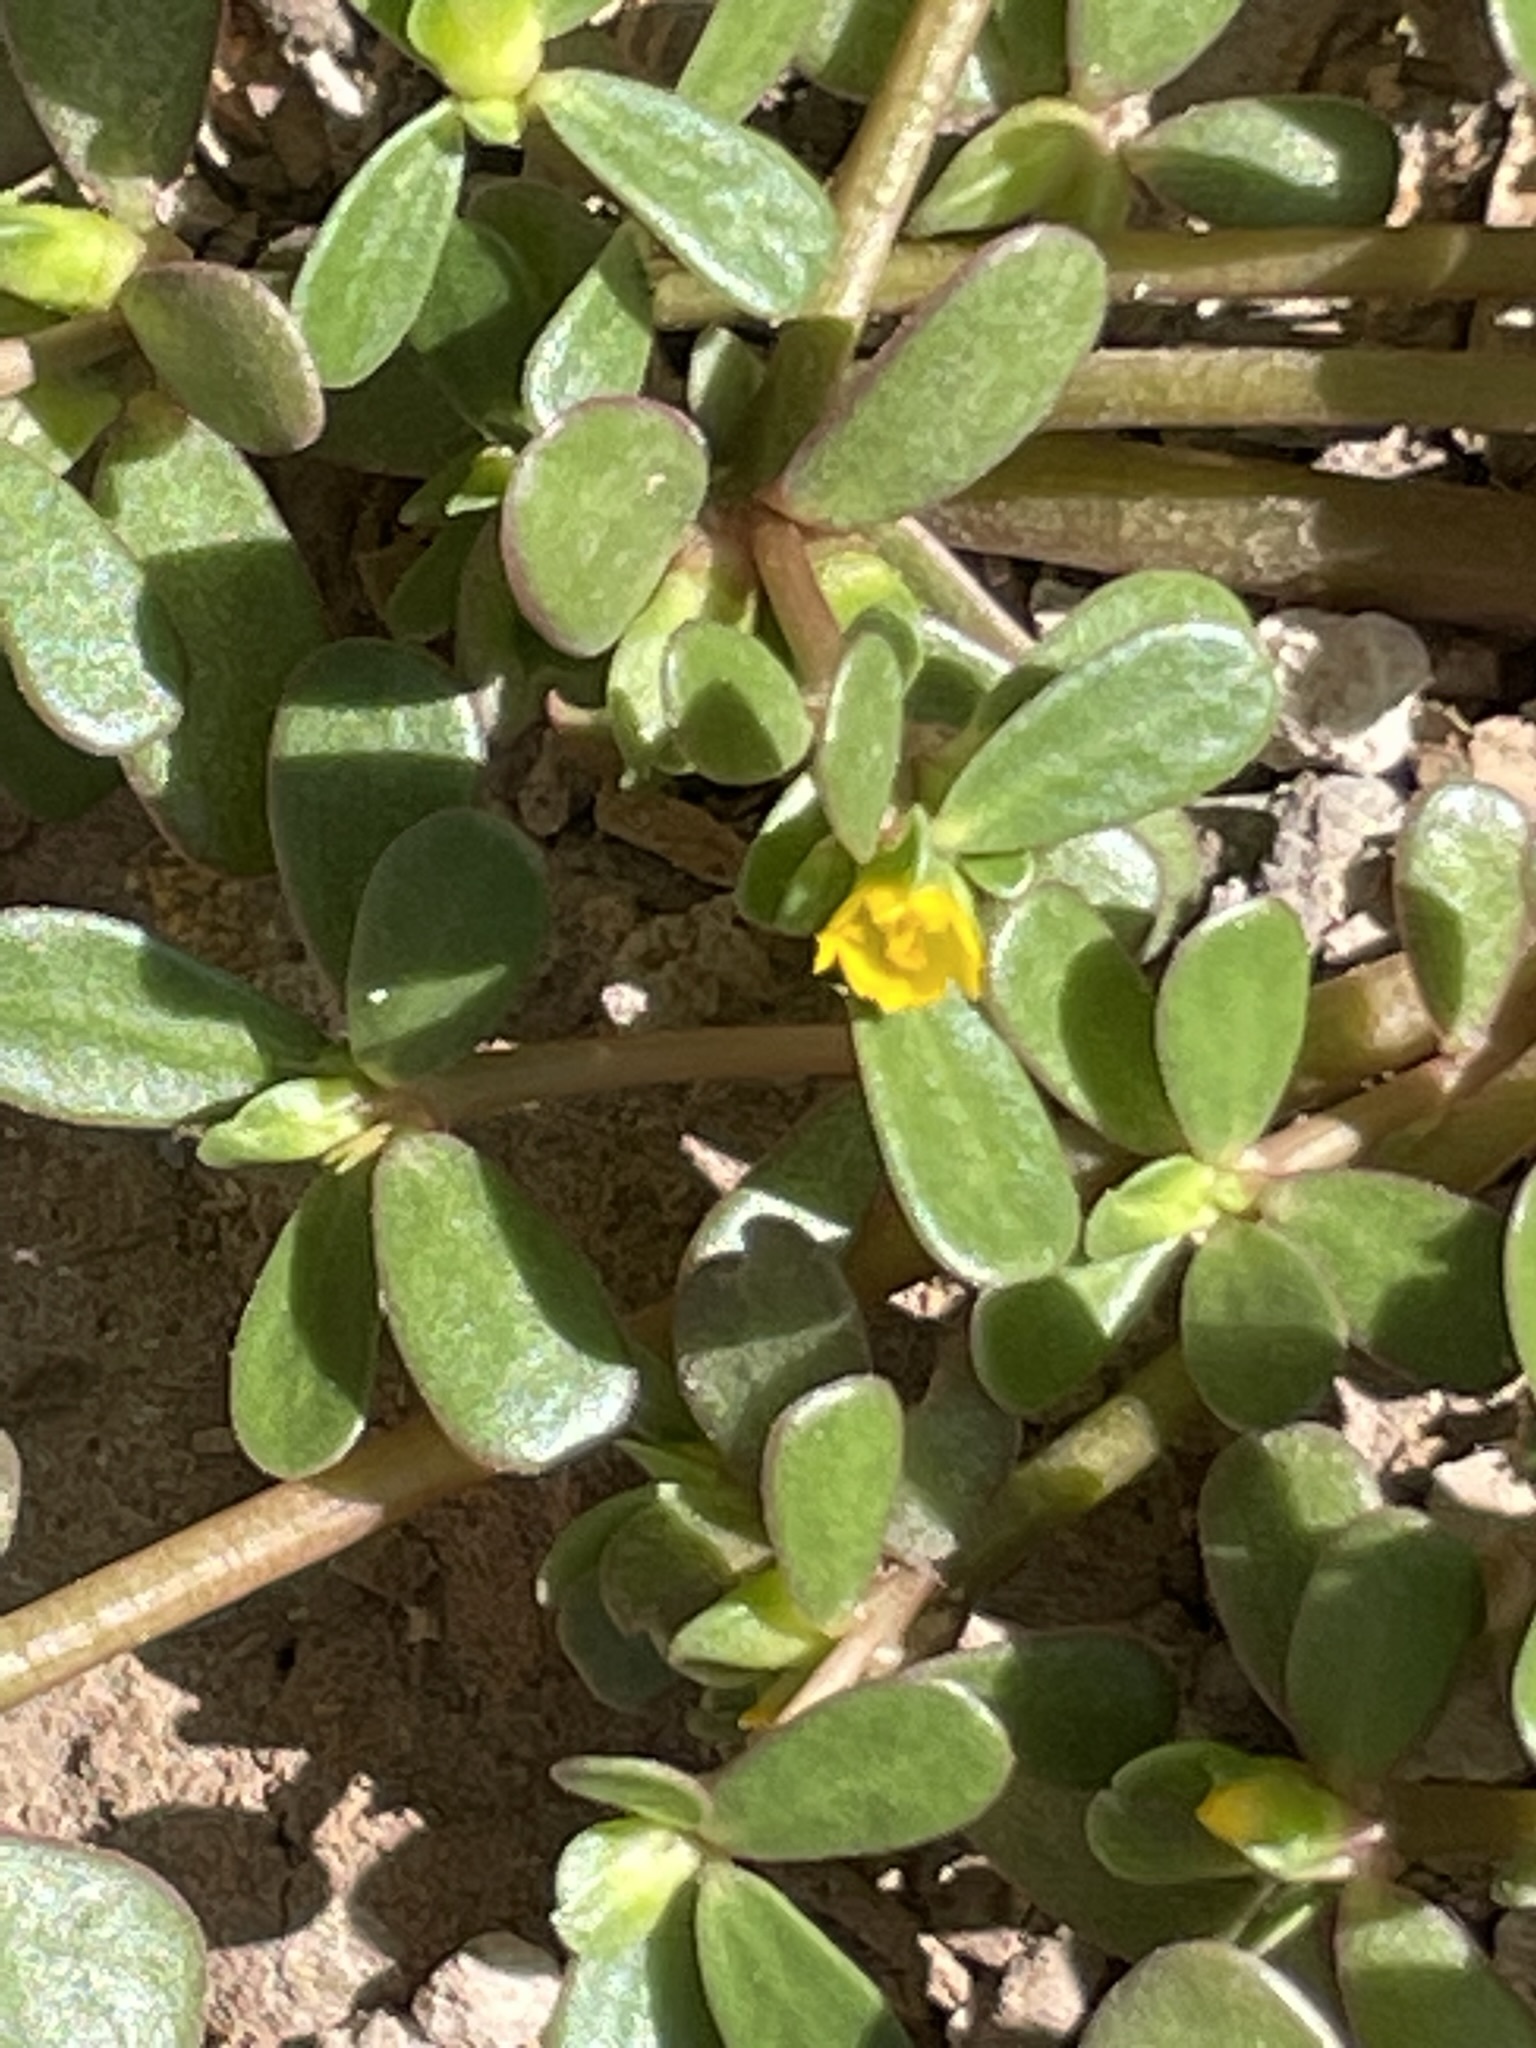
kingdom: Plantae
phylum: Tracheophyta
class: Magnoliopsida
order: Caryophyllales
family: Portulacaceae
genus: Portulaca
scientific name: Portulaca oleracea
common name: Common purslane
